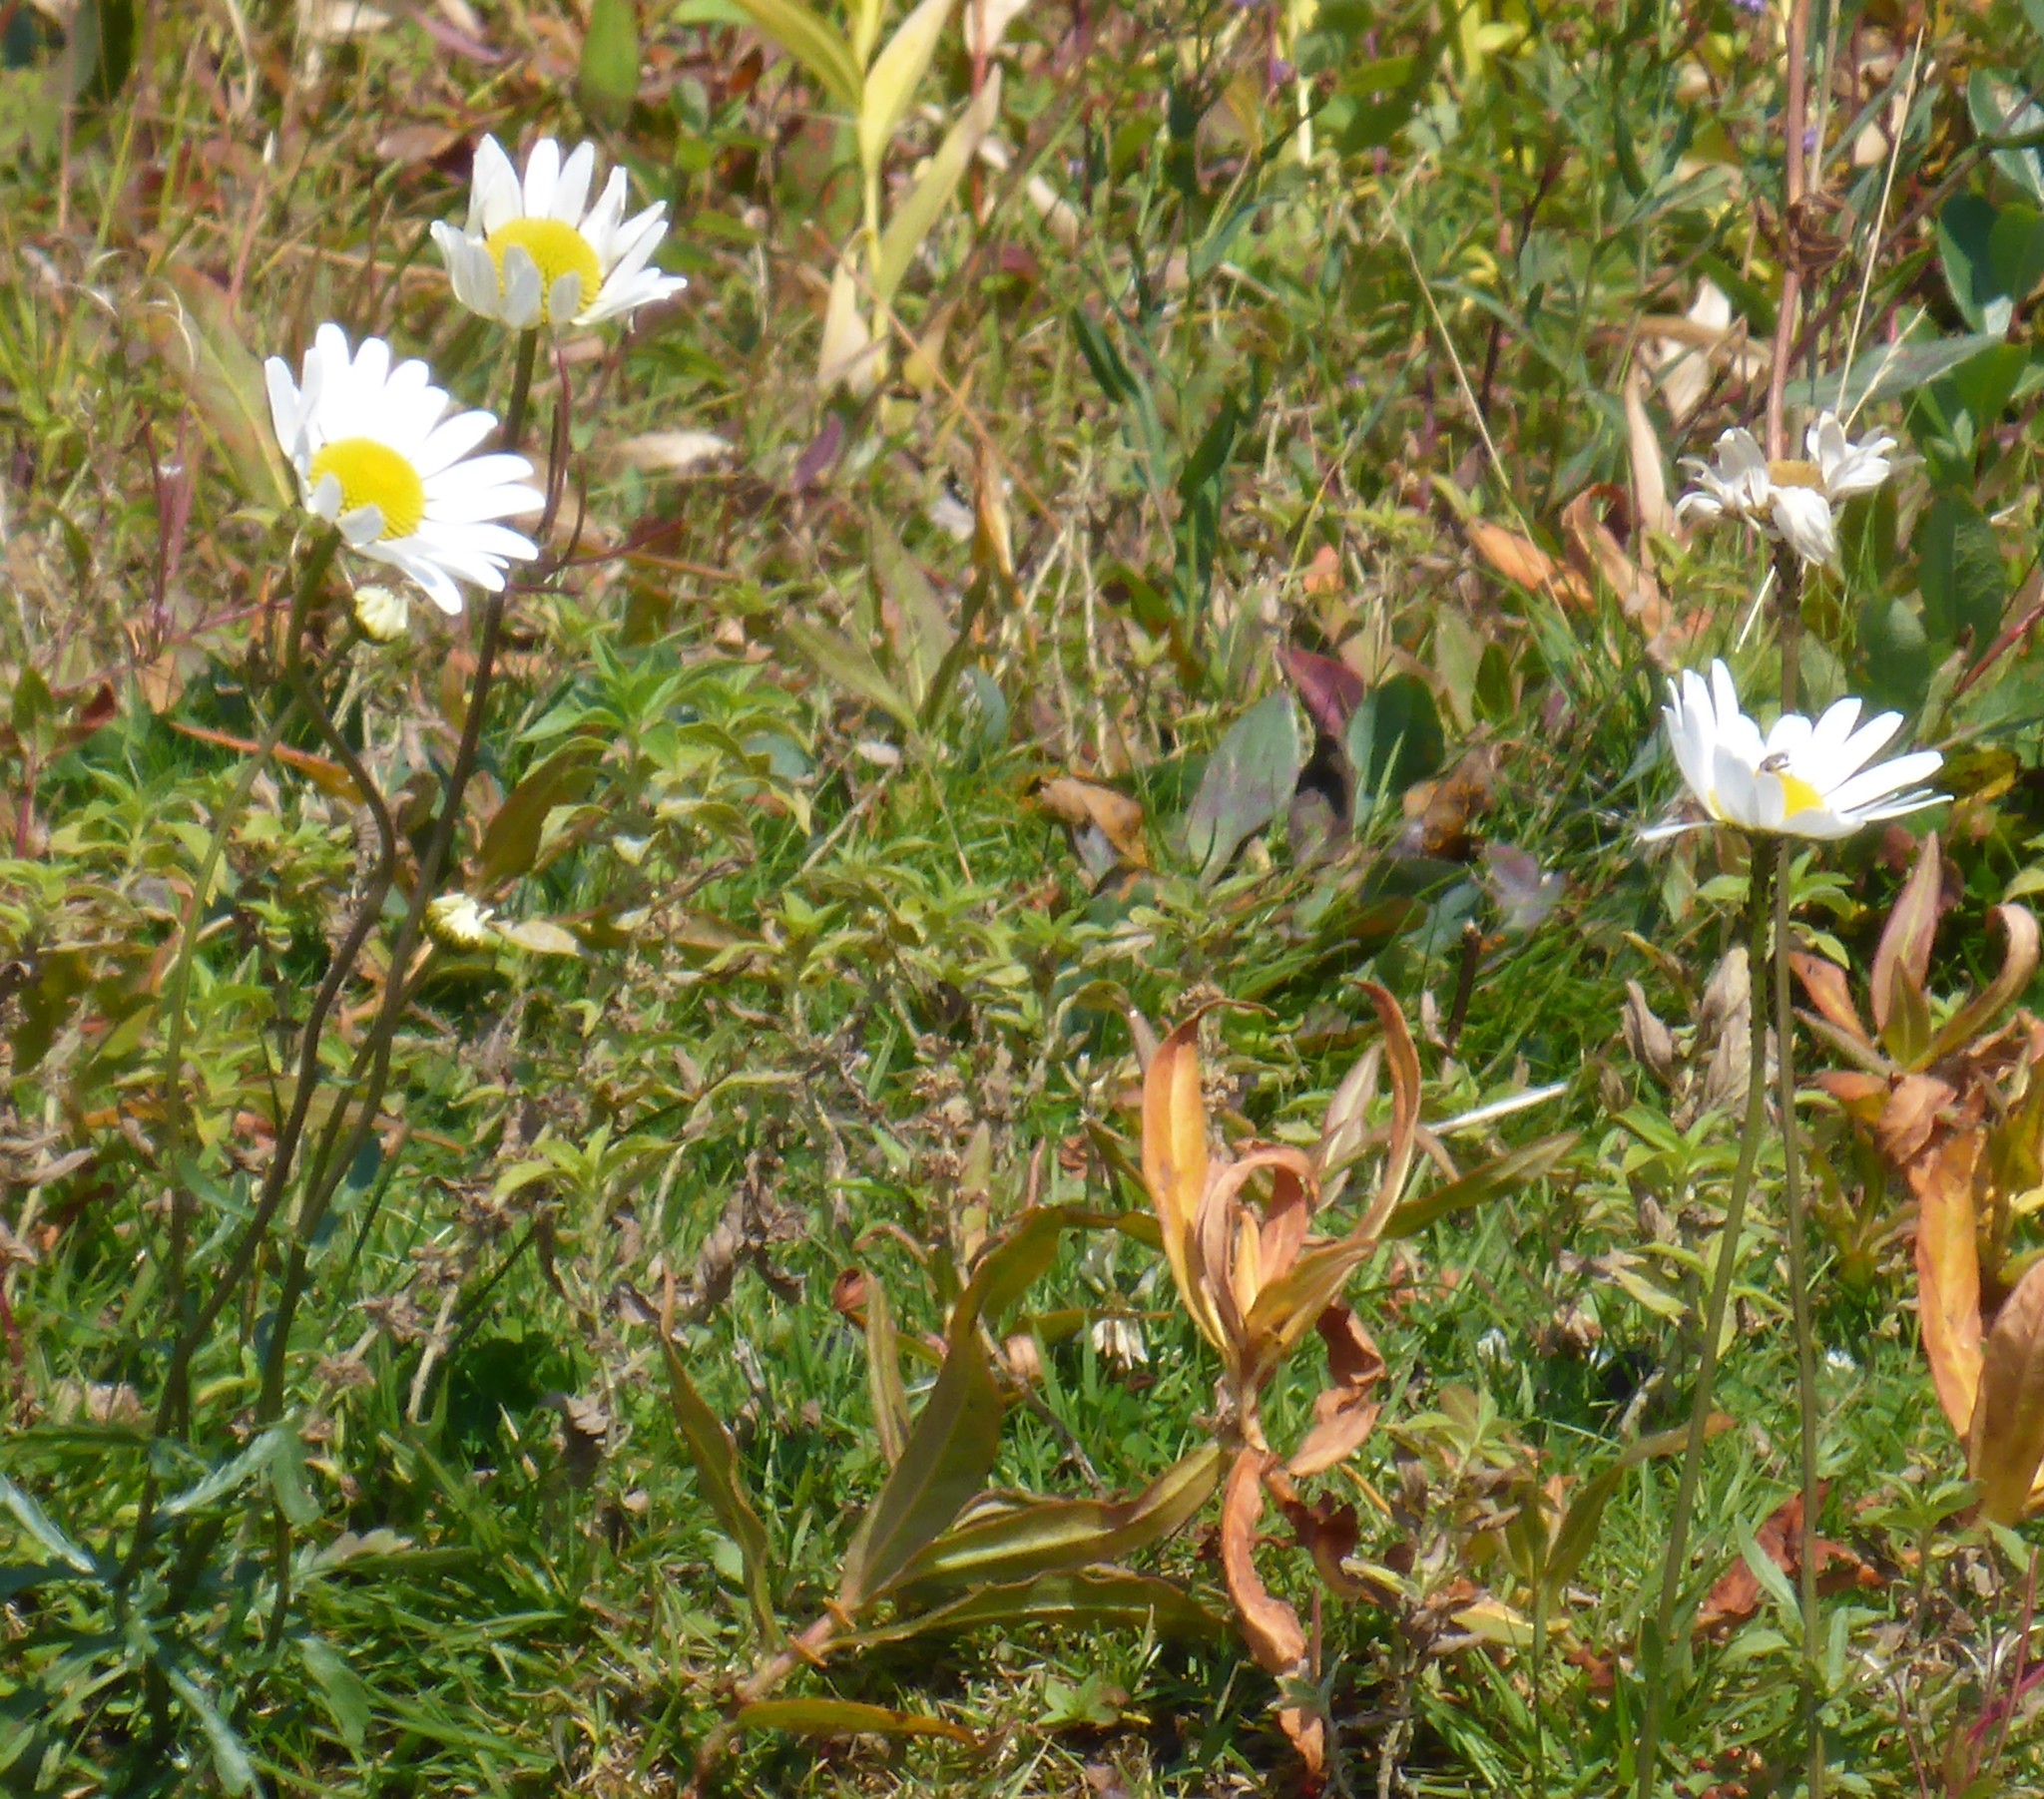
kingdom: Plantae
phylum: Tracheophyta
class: Magnoliopsida
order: Asterales
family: Asteraceae
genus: Leucanthemum
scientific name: Leucanthemum vulgare
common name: Oxeye daisy
